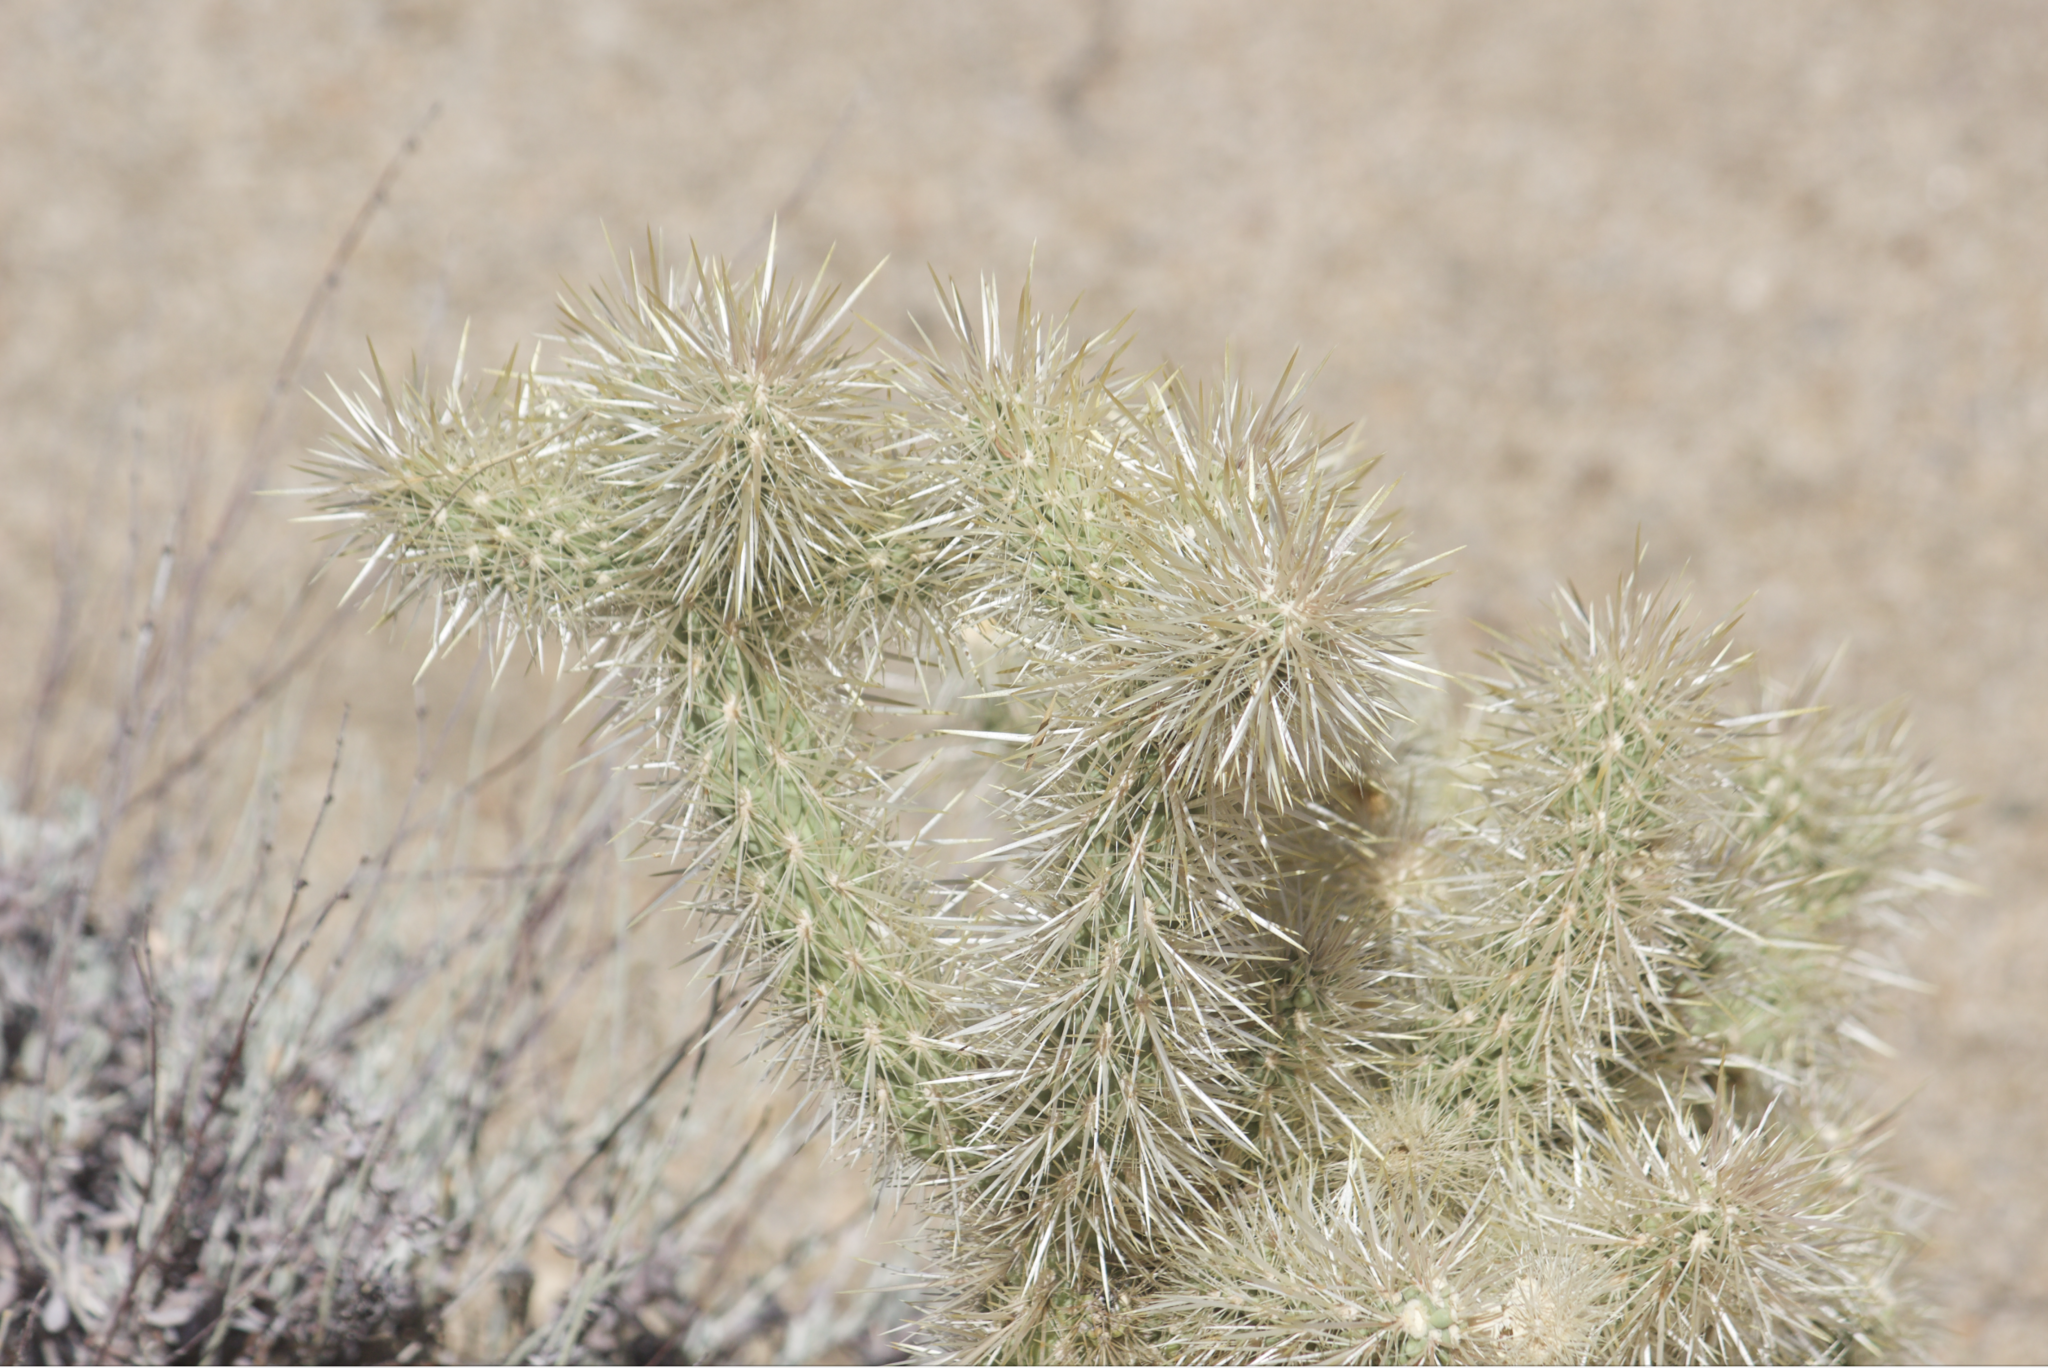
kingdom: Plantae
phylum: Tracheophyta
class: Magnoliopsida
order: Caryophyllales
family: Cactaceae
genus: Cylindropuntia
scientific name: Cylindropuntia echinocarpa
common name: Ground cholla
